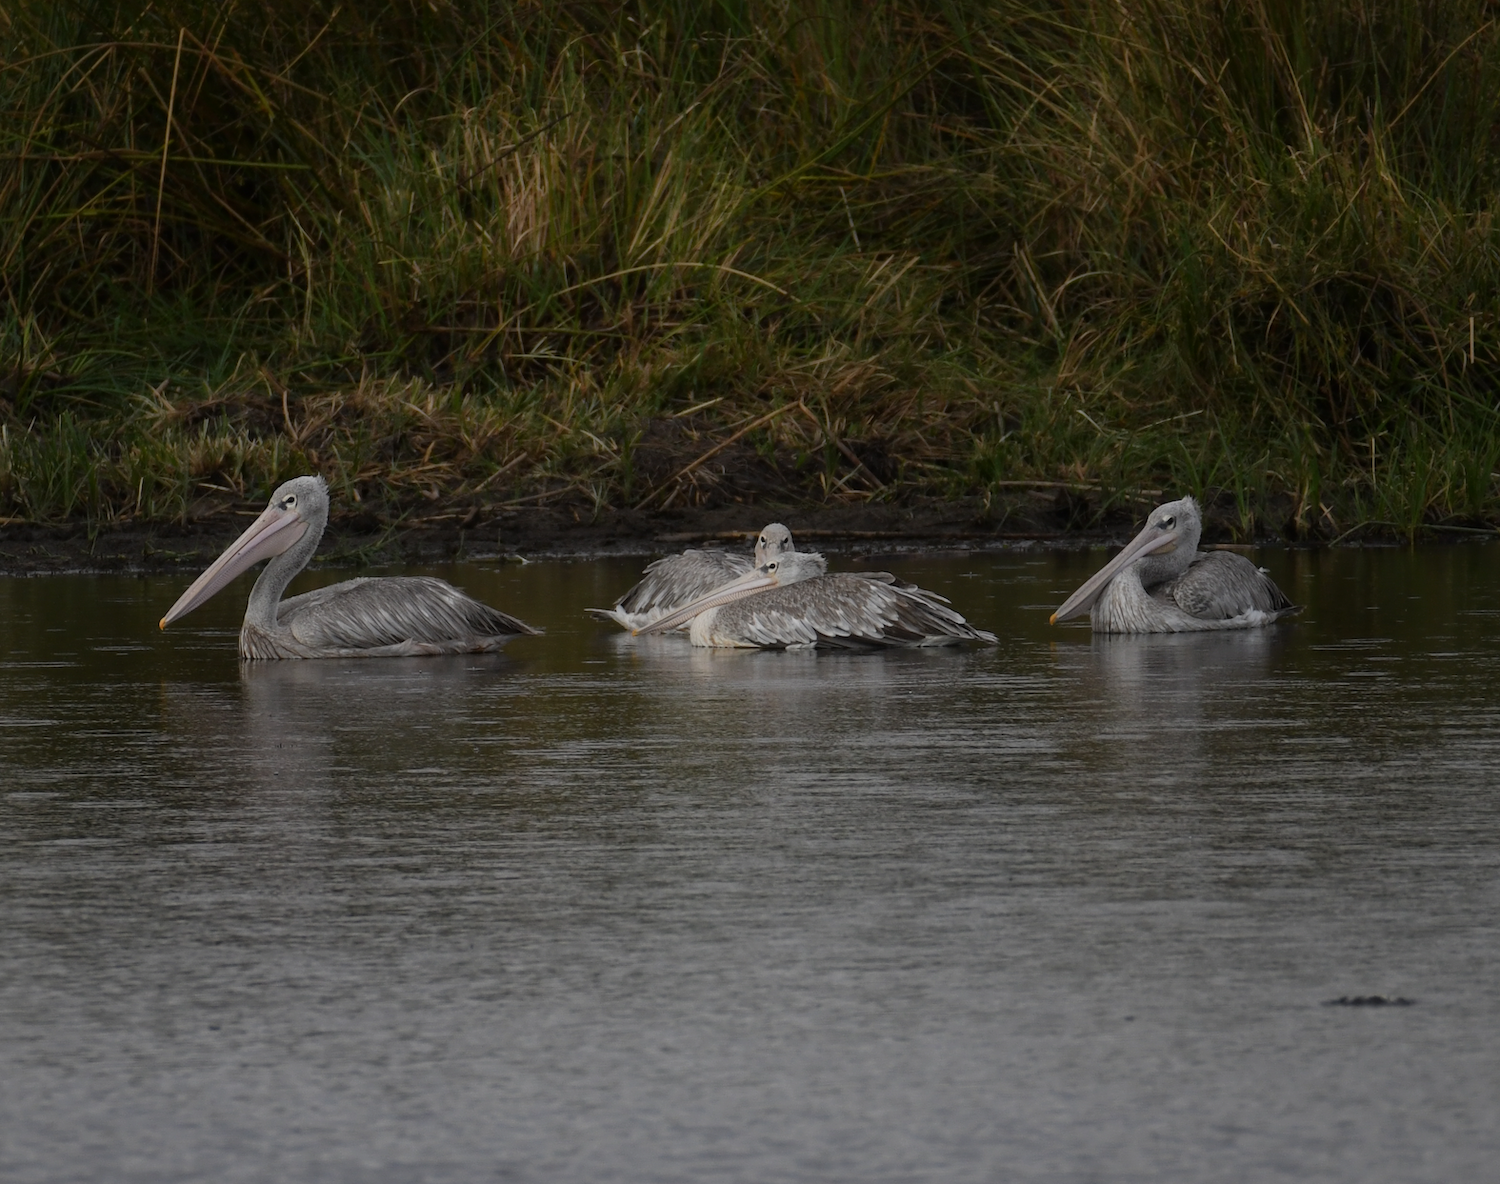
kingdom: Animalia
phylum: Chordata
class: Aves
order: Pelecaniformes
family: Pelecanidae
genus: Pelecanus
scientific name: Pelecanus rufescens
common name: Pink-backed pelican
